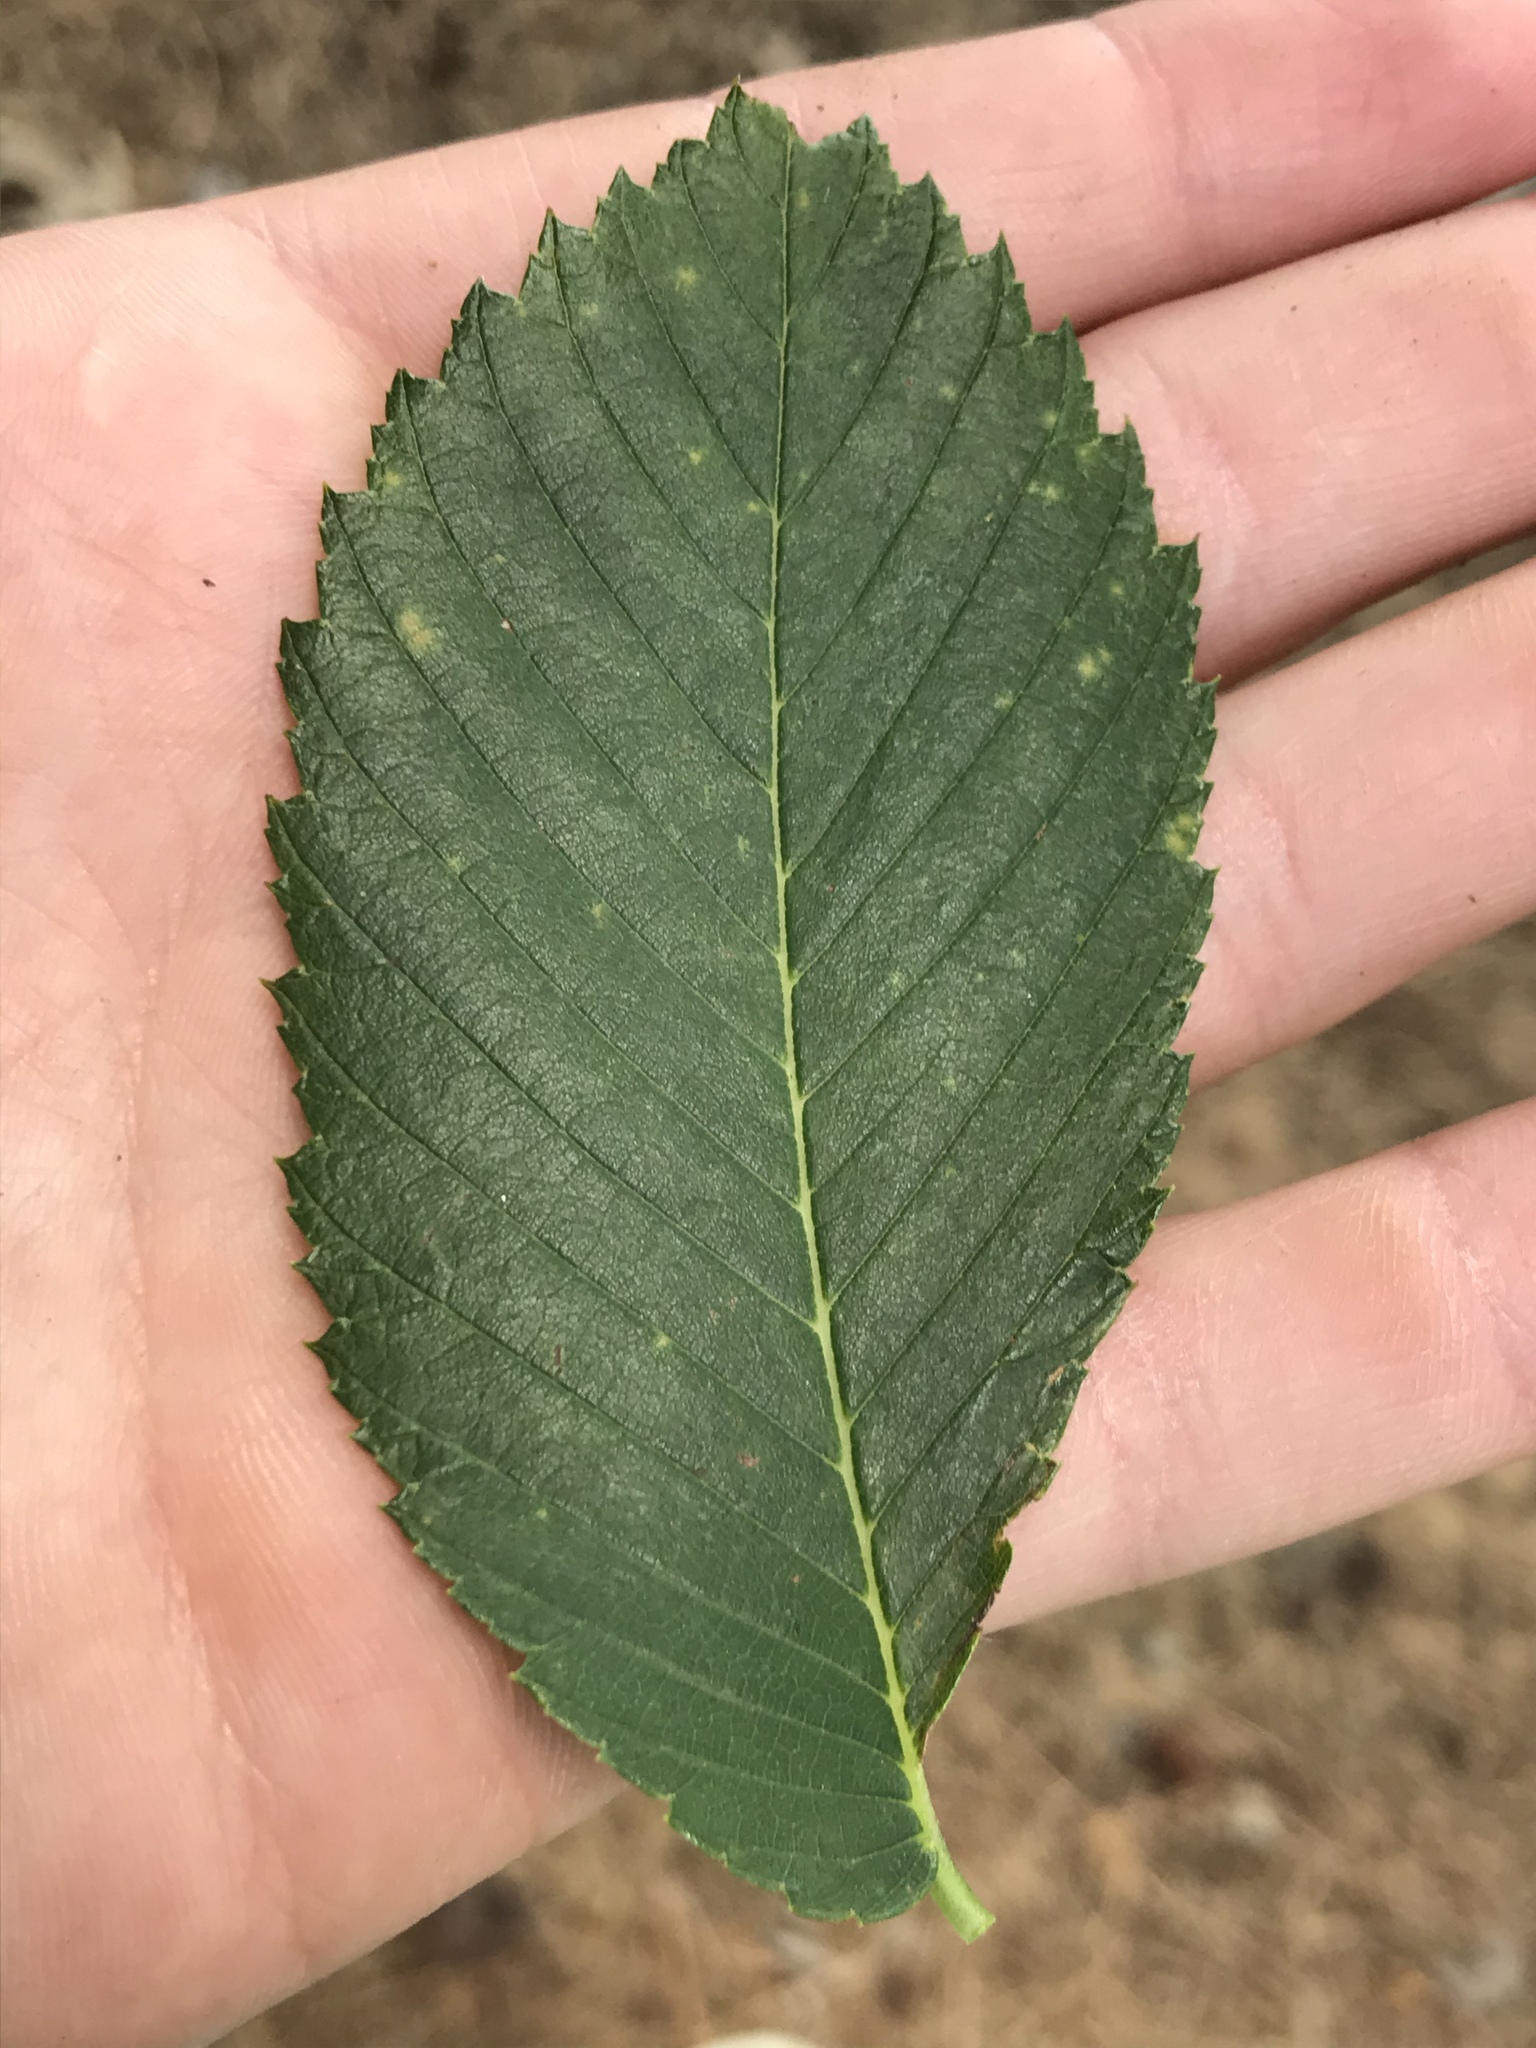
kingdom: Plantae
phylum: Tracheophyta
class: Magnoliopsida
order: Rosales
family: Ulmaceae
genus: Ulmus
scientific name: Ulmus americana
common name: American elm
